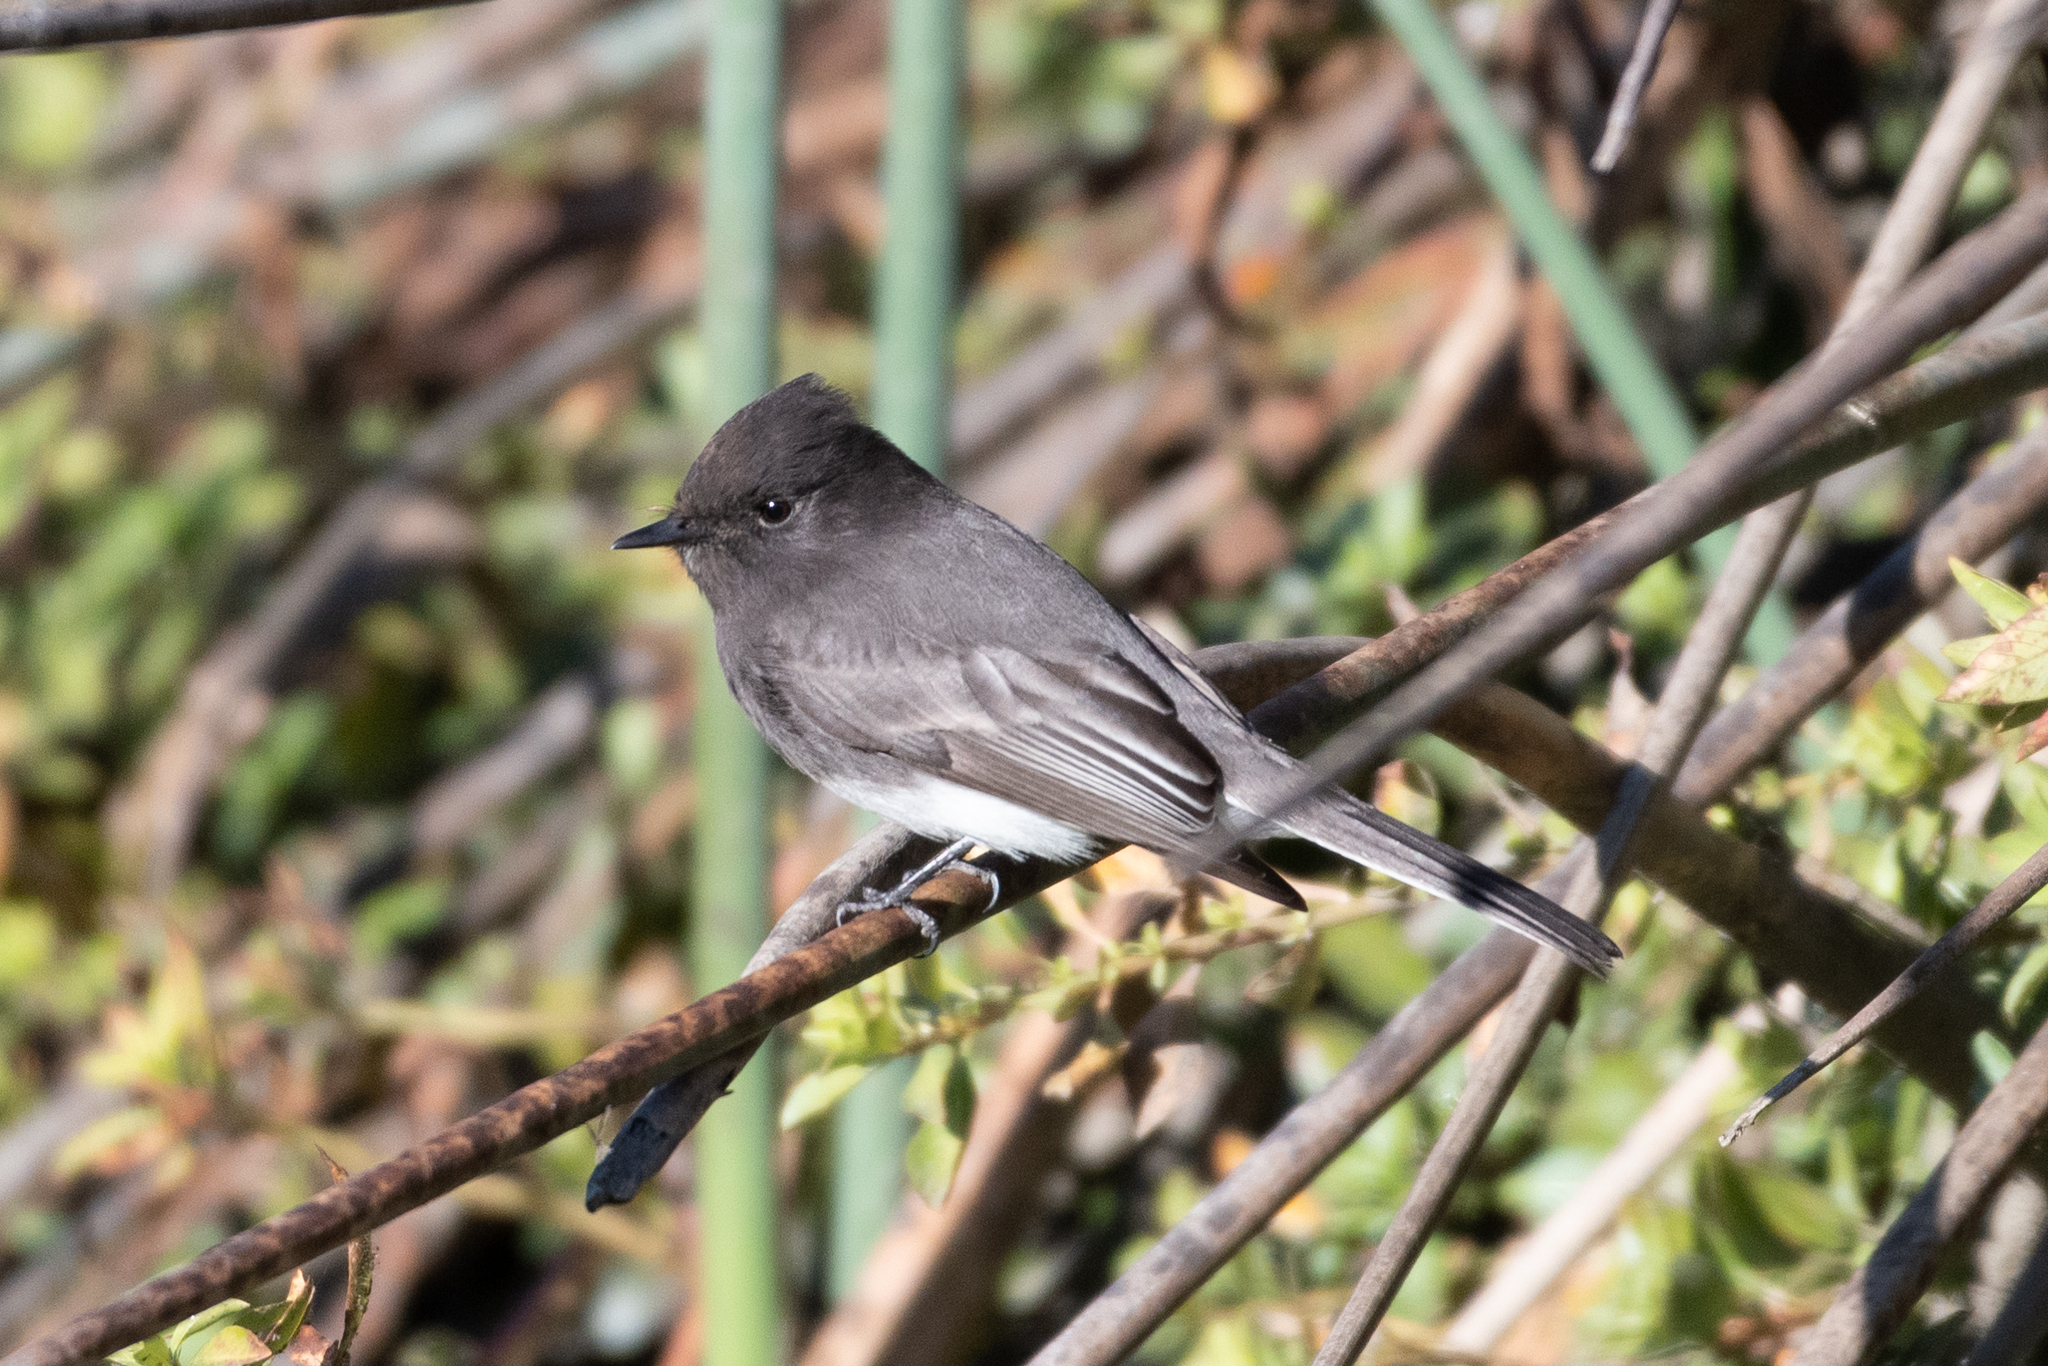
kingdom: Animalia
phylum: Chordata
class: Aves
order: Passeriformes
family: Tyrannidae
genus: Sayornis
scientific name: Sayornis nigricans
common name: Black phoebe
